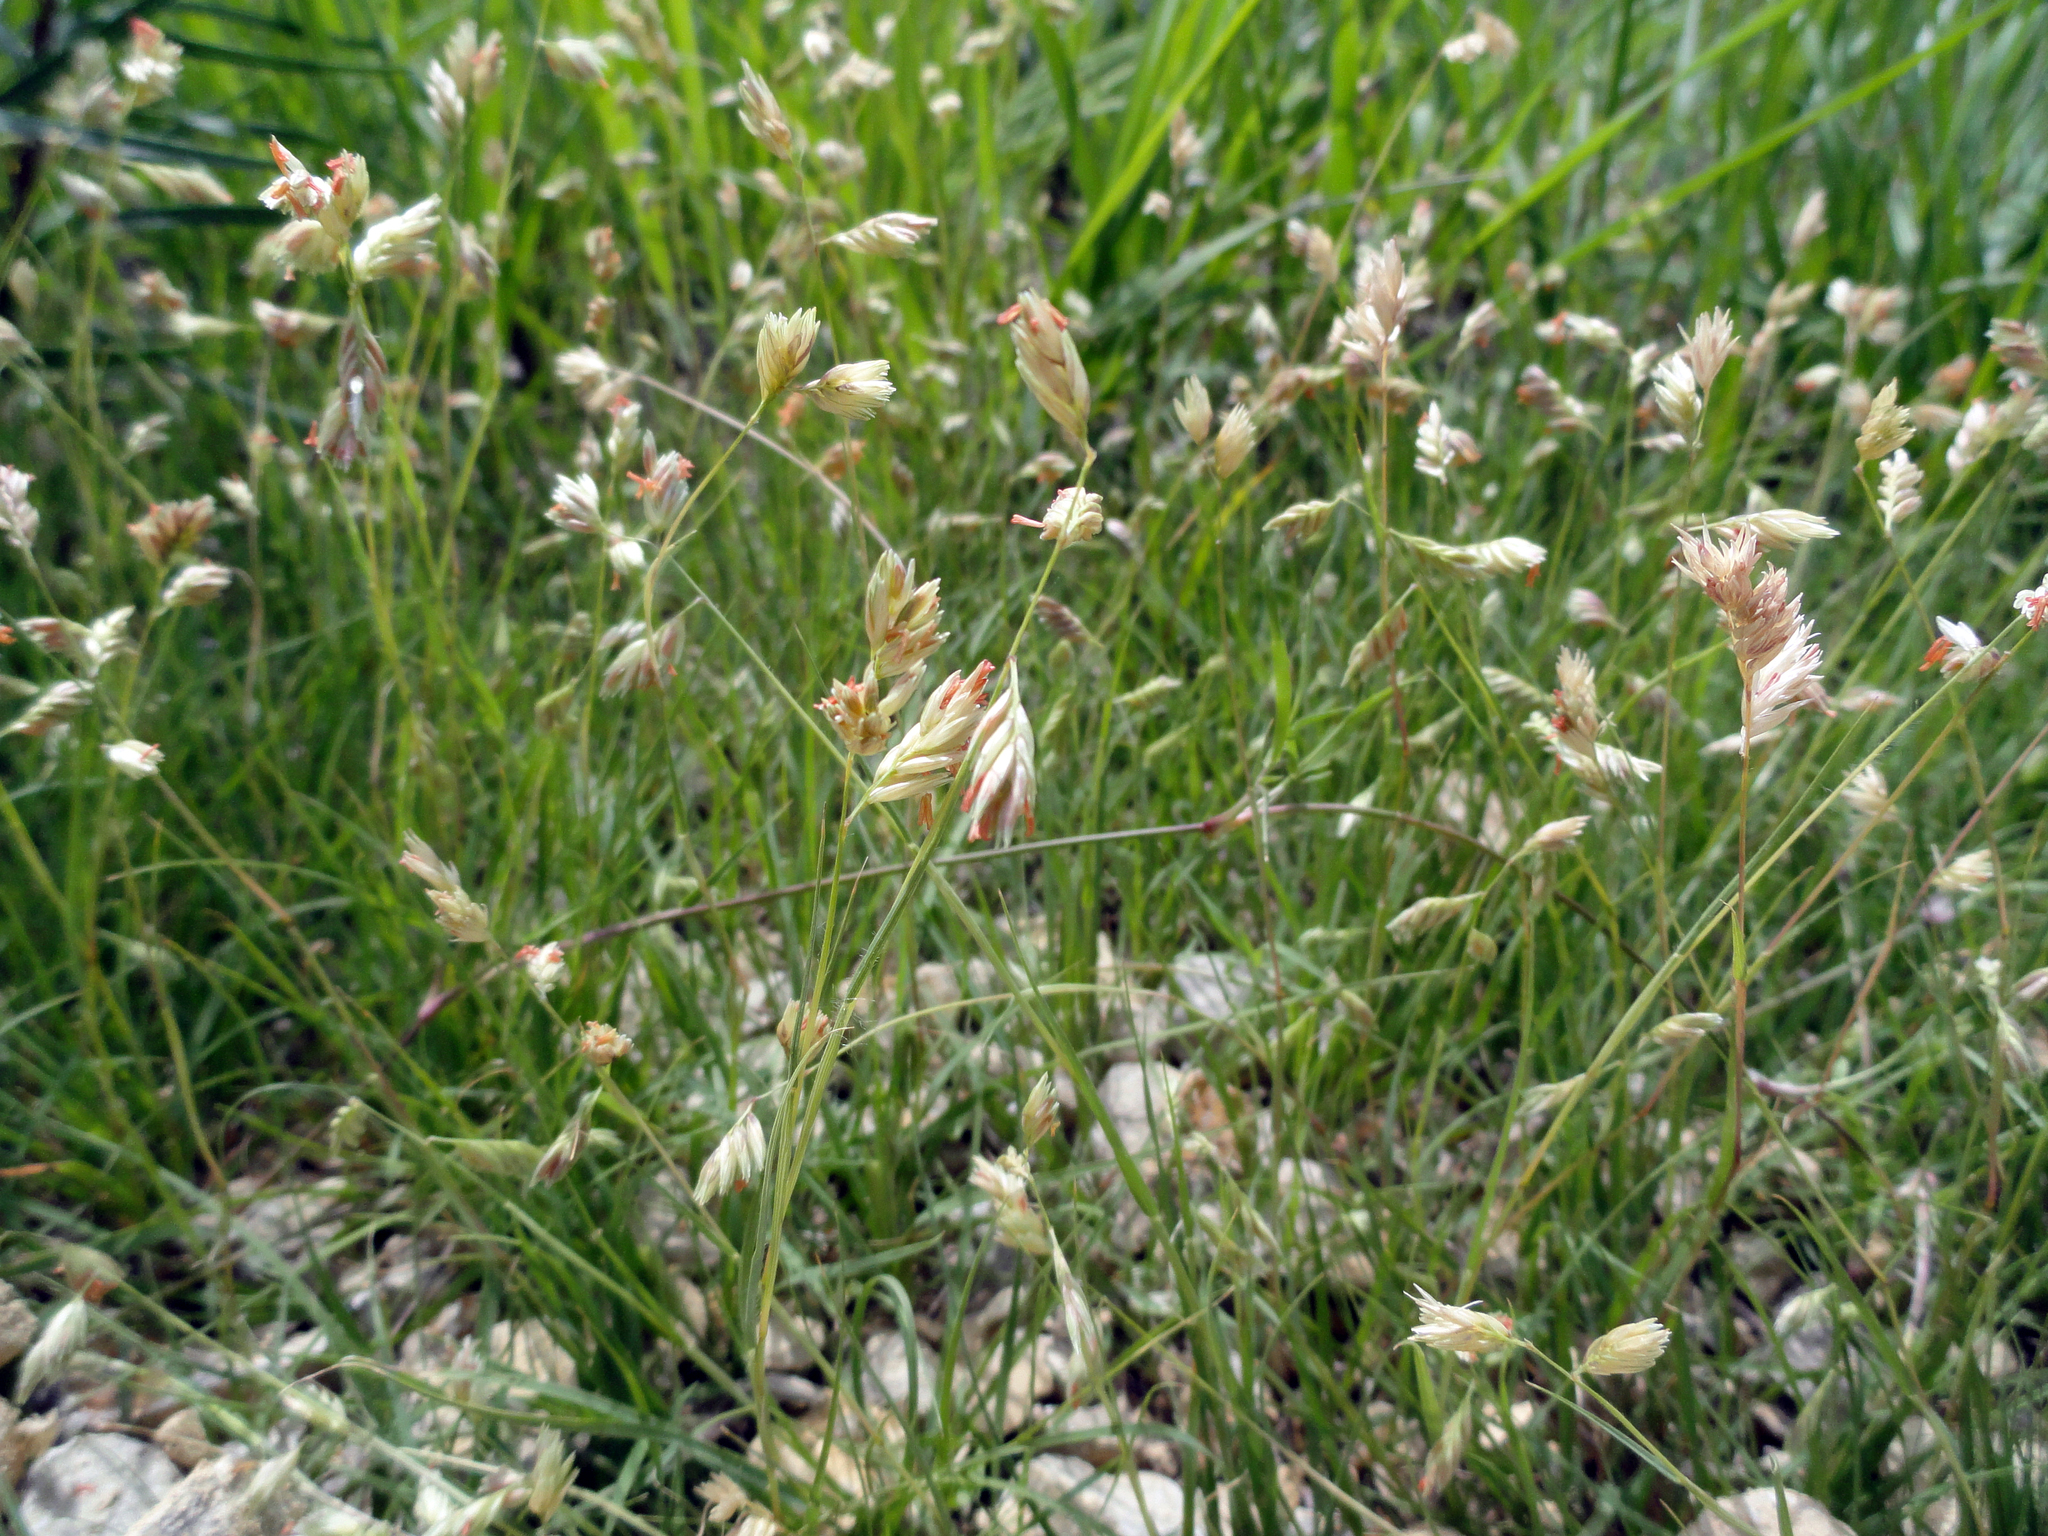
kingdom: Plantae
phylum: Tracheophyta
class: Liliopsida
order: Poales
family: Poaceae
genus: Bouteloua
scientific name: Bouteloua dactyloides
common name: Buffalo grass
